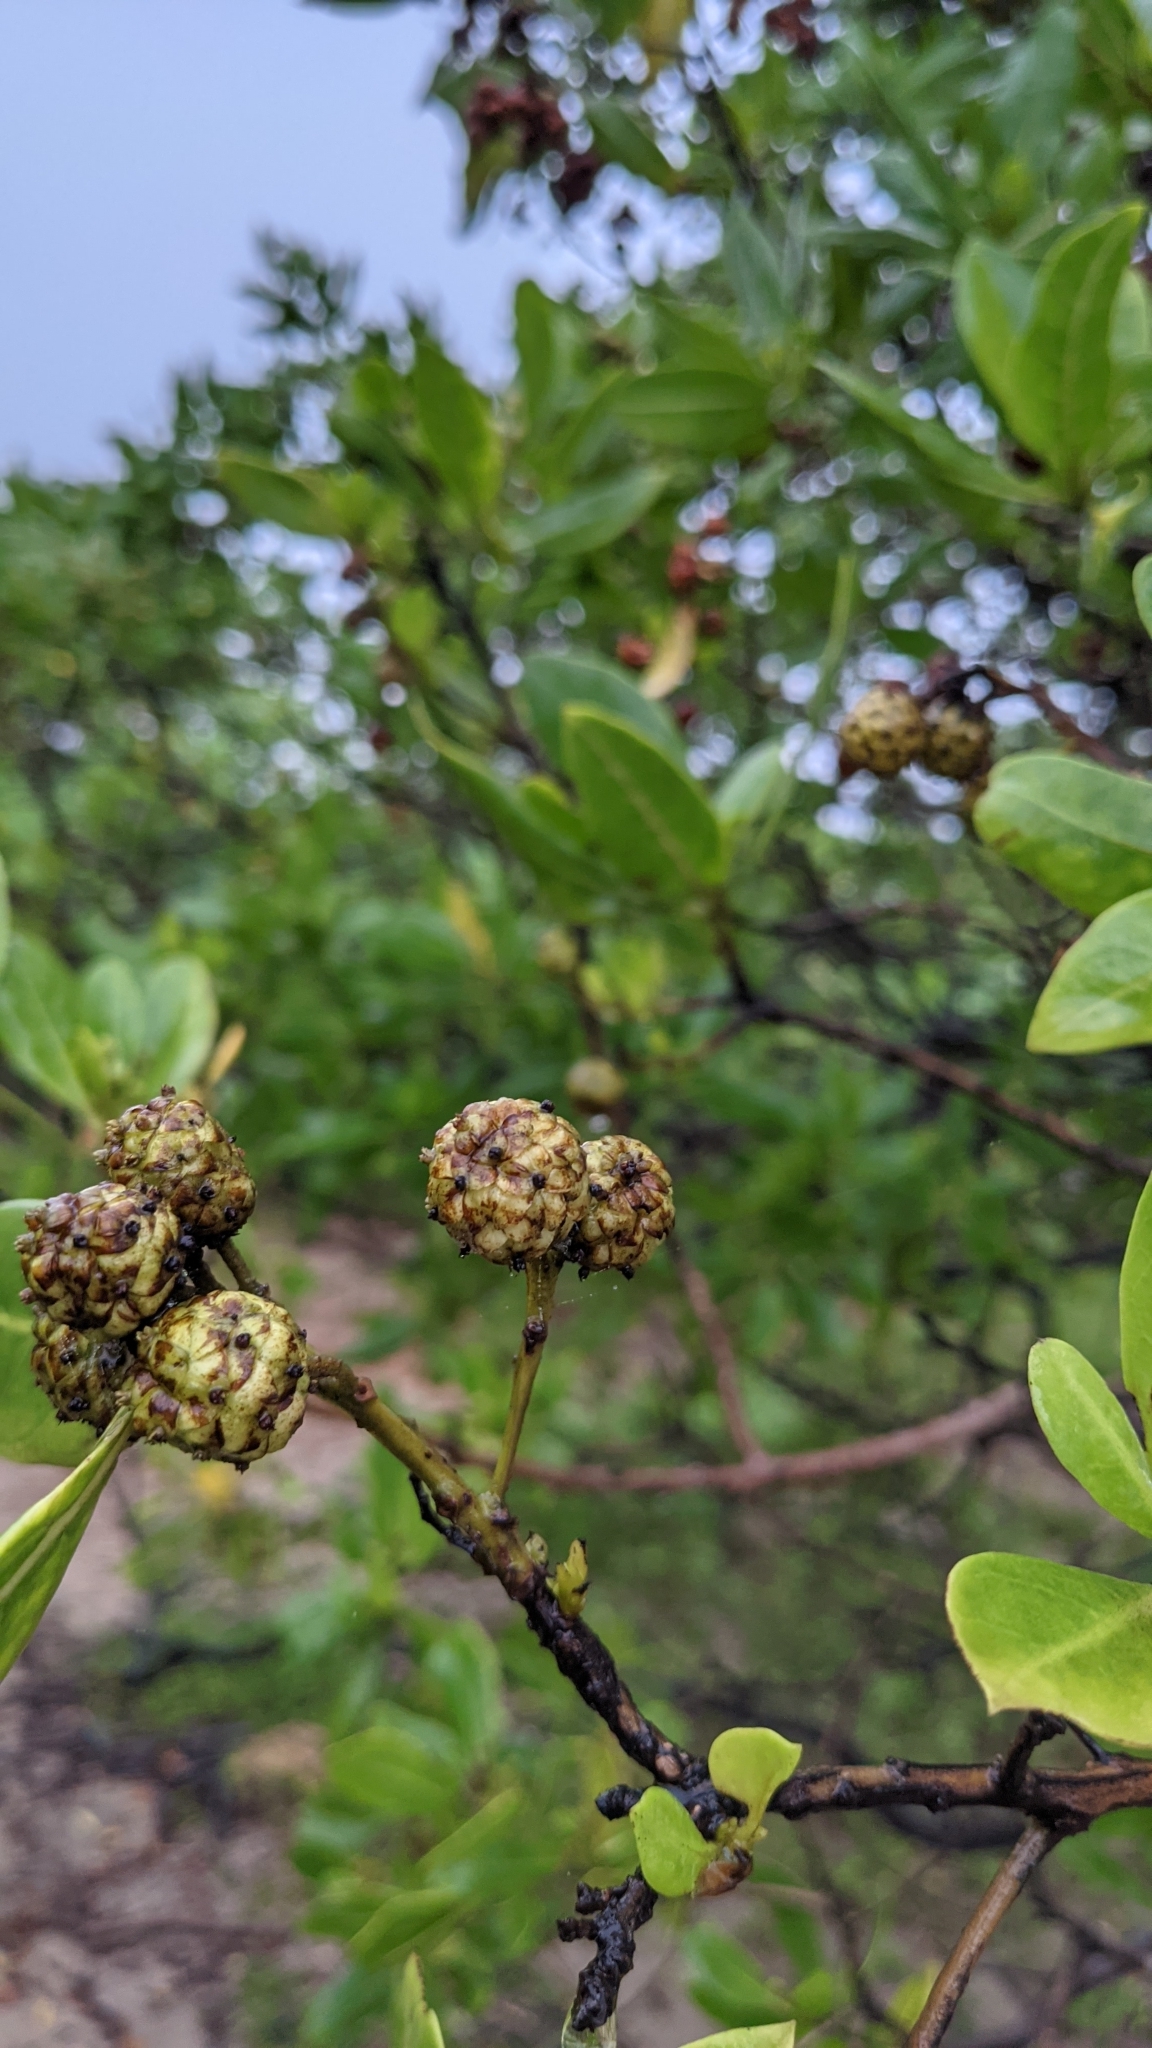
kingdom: Plantae
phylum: Tracheophyta
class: Magnoliopsida
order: Myrtales
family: Combretaceae
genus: Conocarpus
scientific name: Conocarpus erectus
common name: Button mangrove
